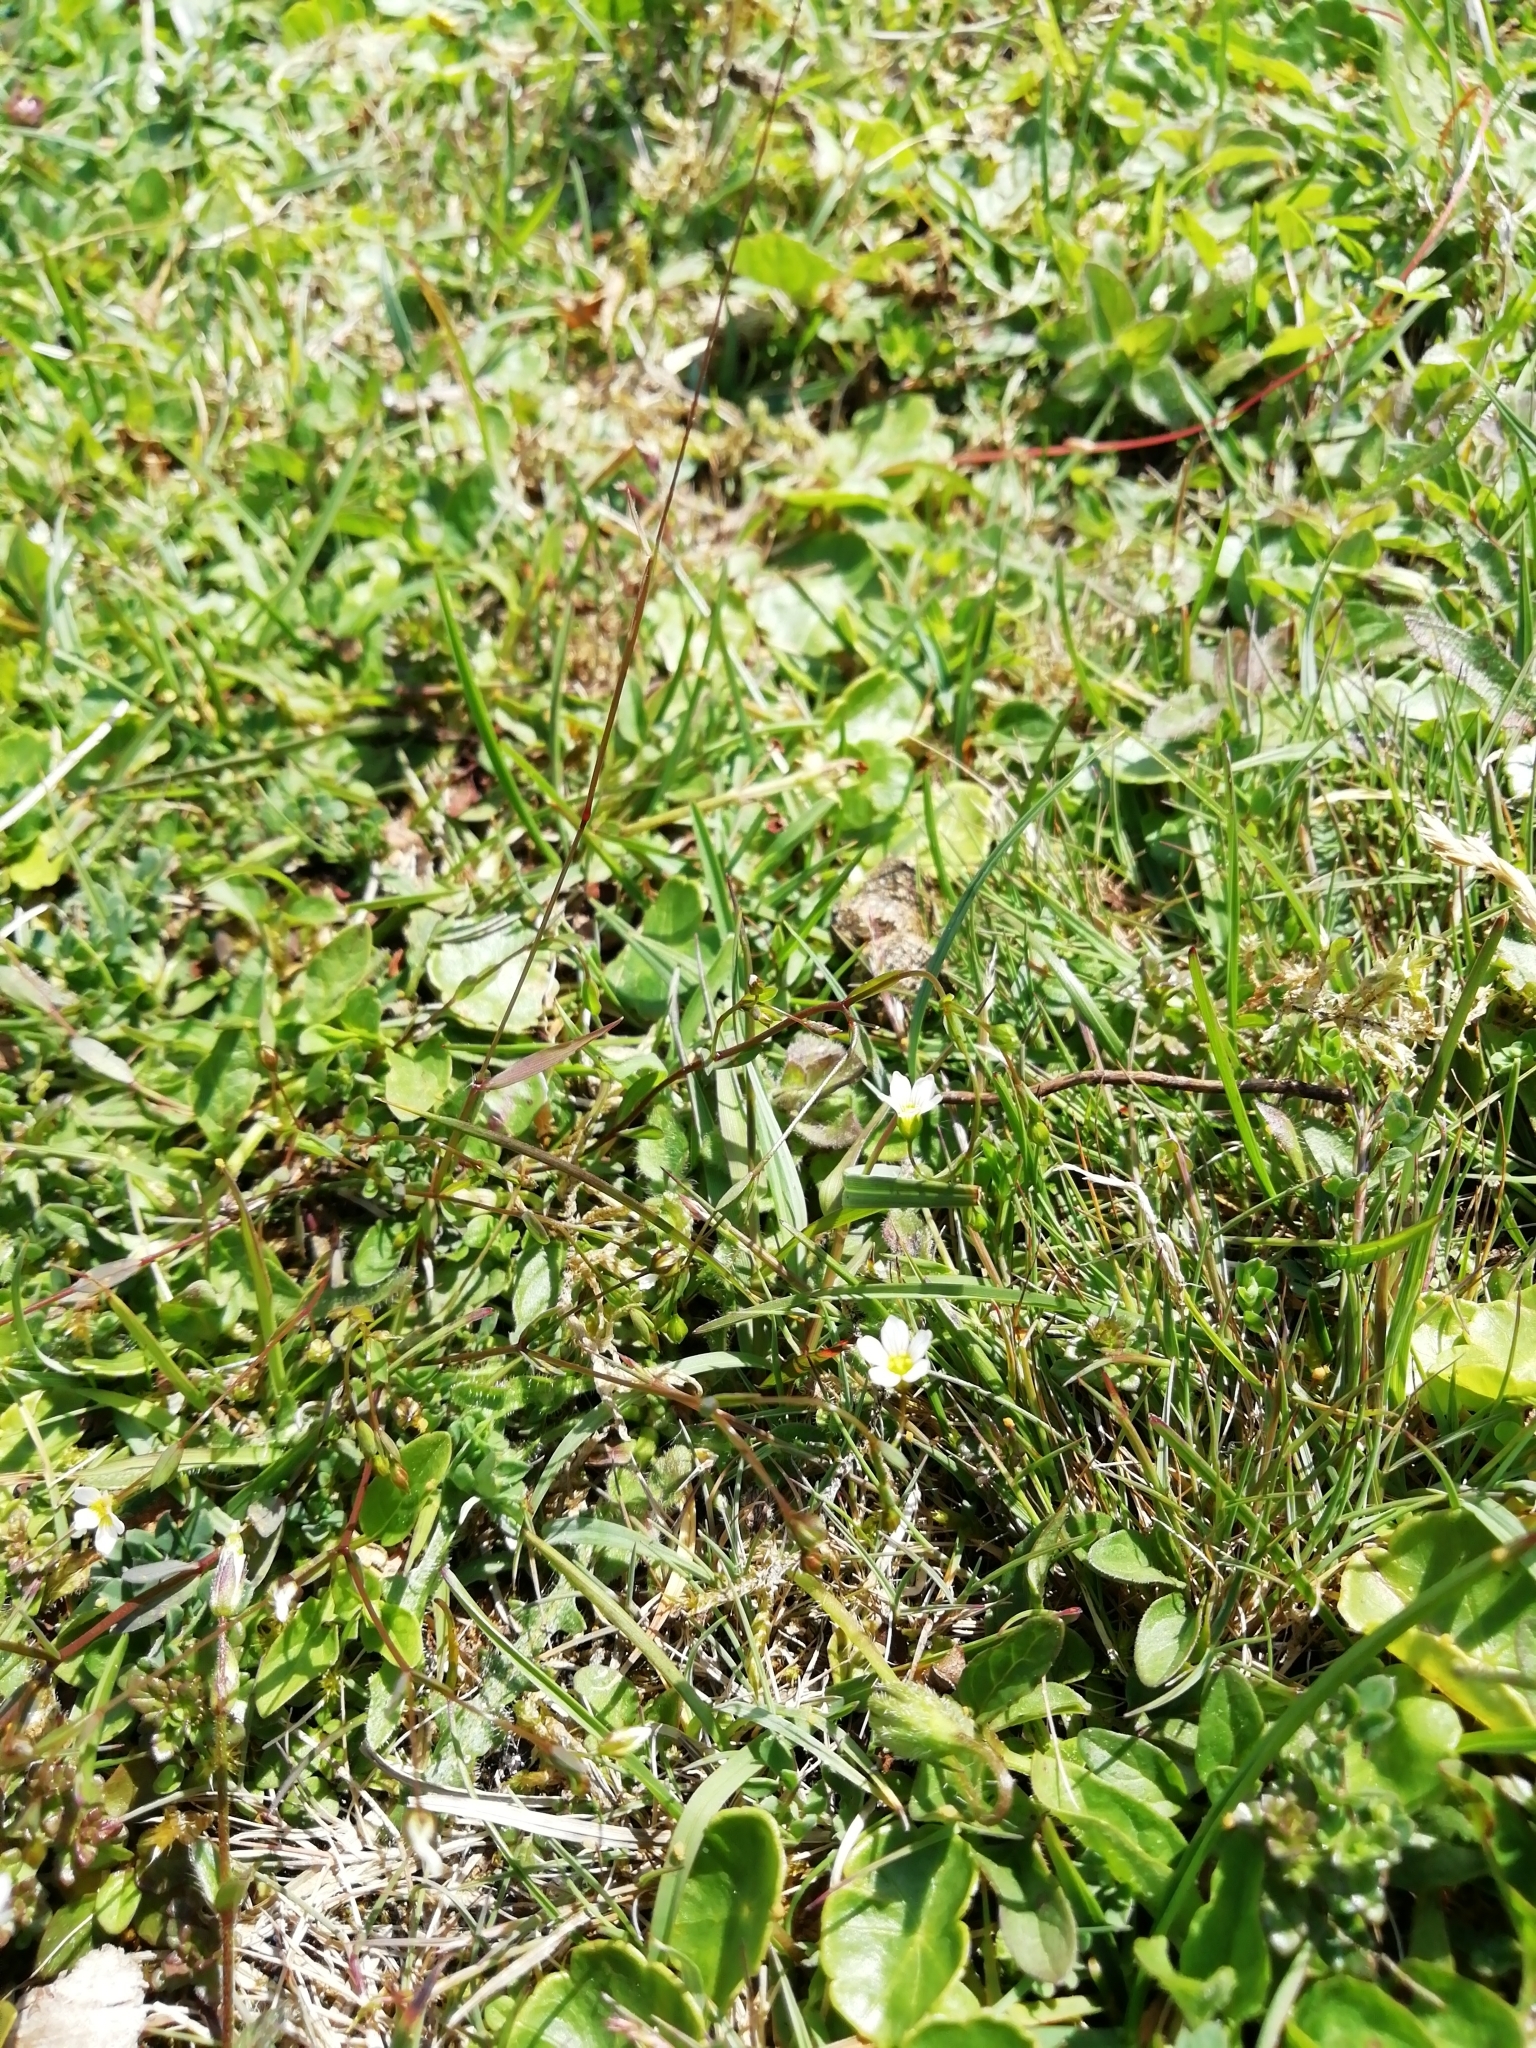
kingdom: Plantae
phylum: Tracheophyta
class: Magnoliopsida
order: Malpighiales
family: Linaceae
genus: Linum
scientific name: Linum catharticum
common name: Fairy flax
